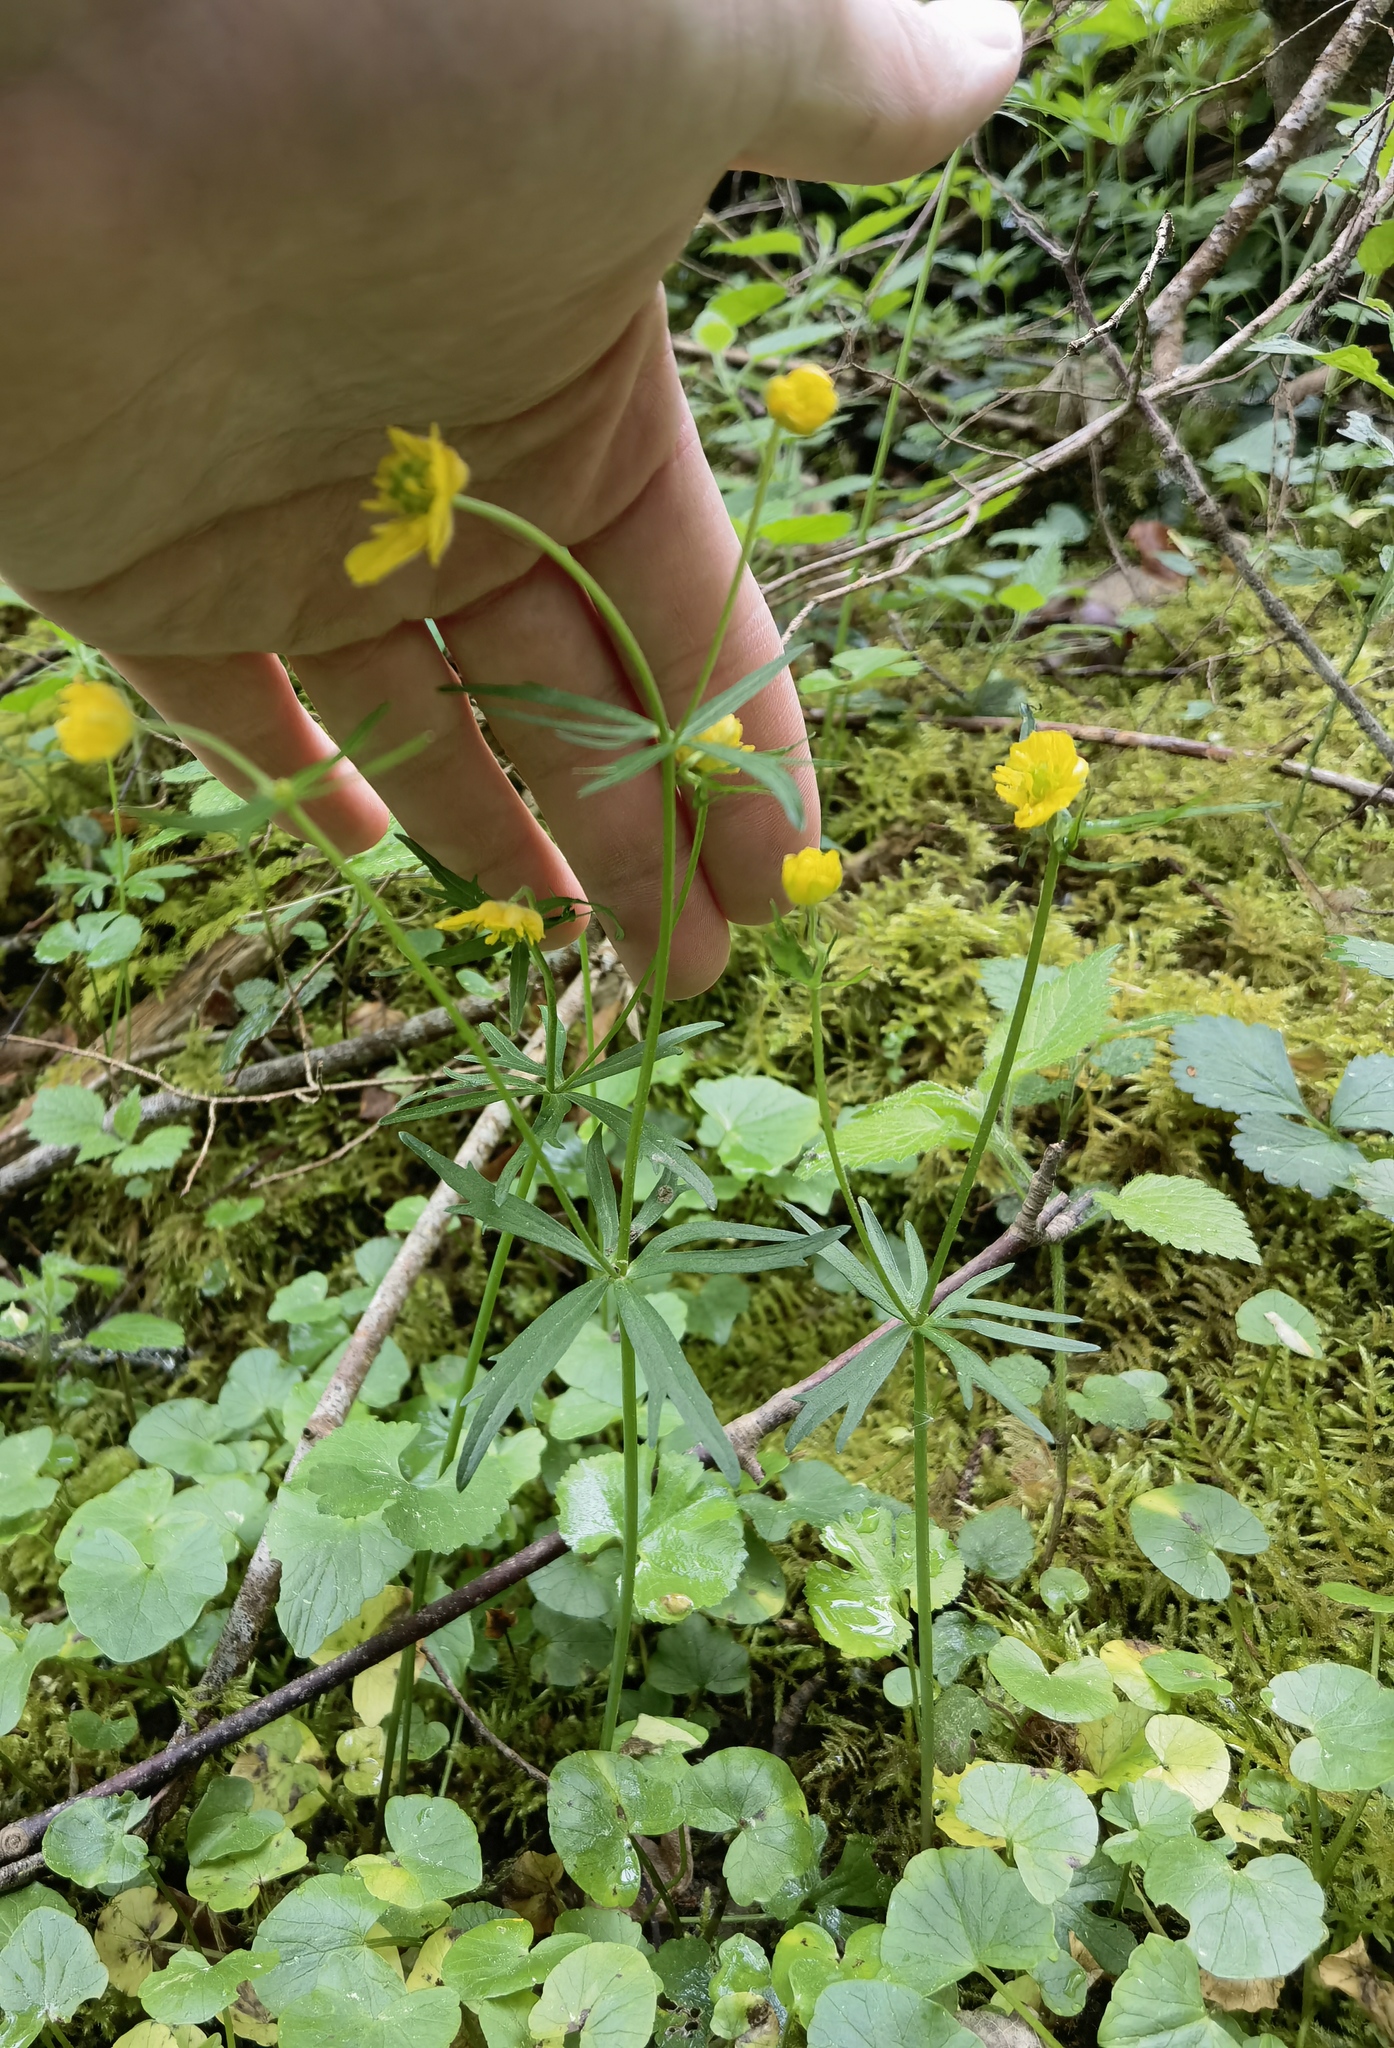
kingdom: Plantae
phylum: Tracheophyta
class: Magnoliopsida
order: Ranunculales
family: Ranunculaceae
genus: Ranunculus
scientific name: Ranunculus auricomus
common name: Goldilocks buttercup
